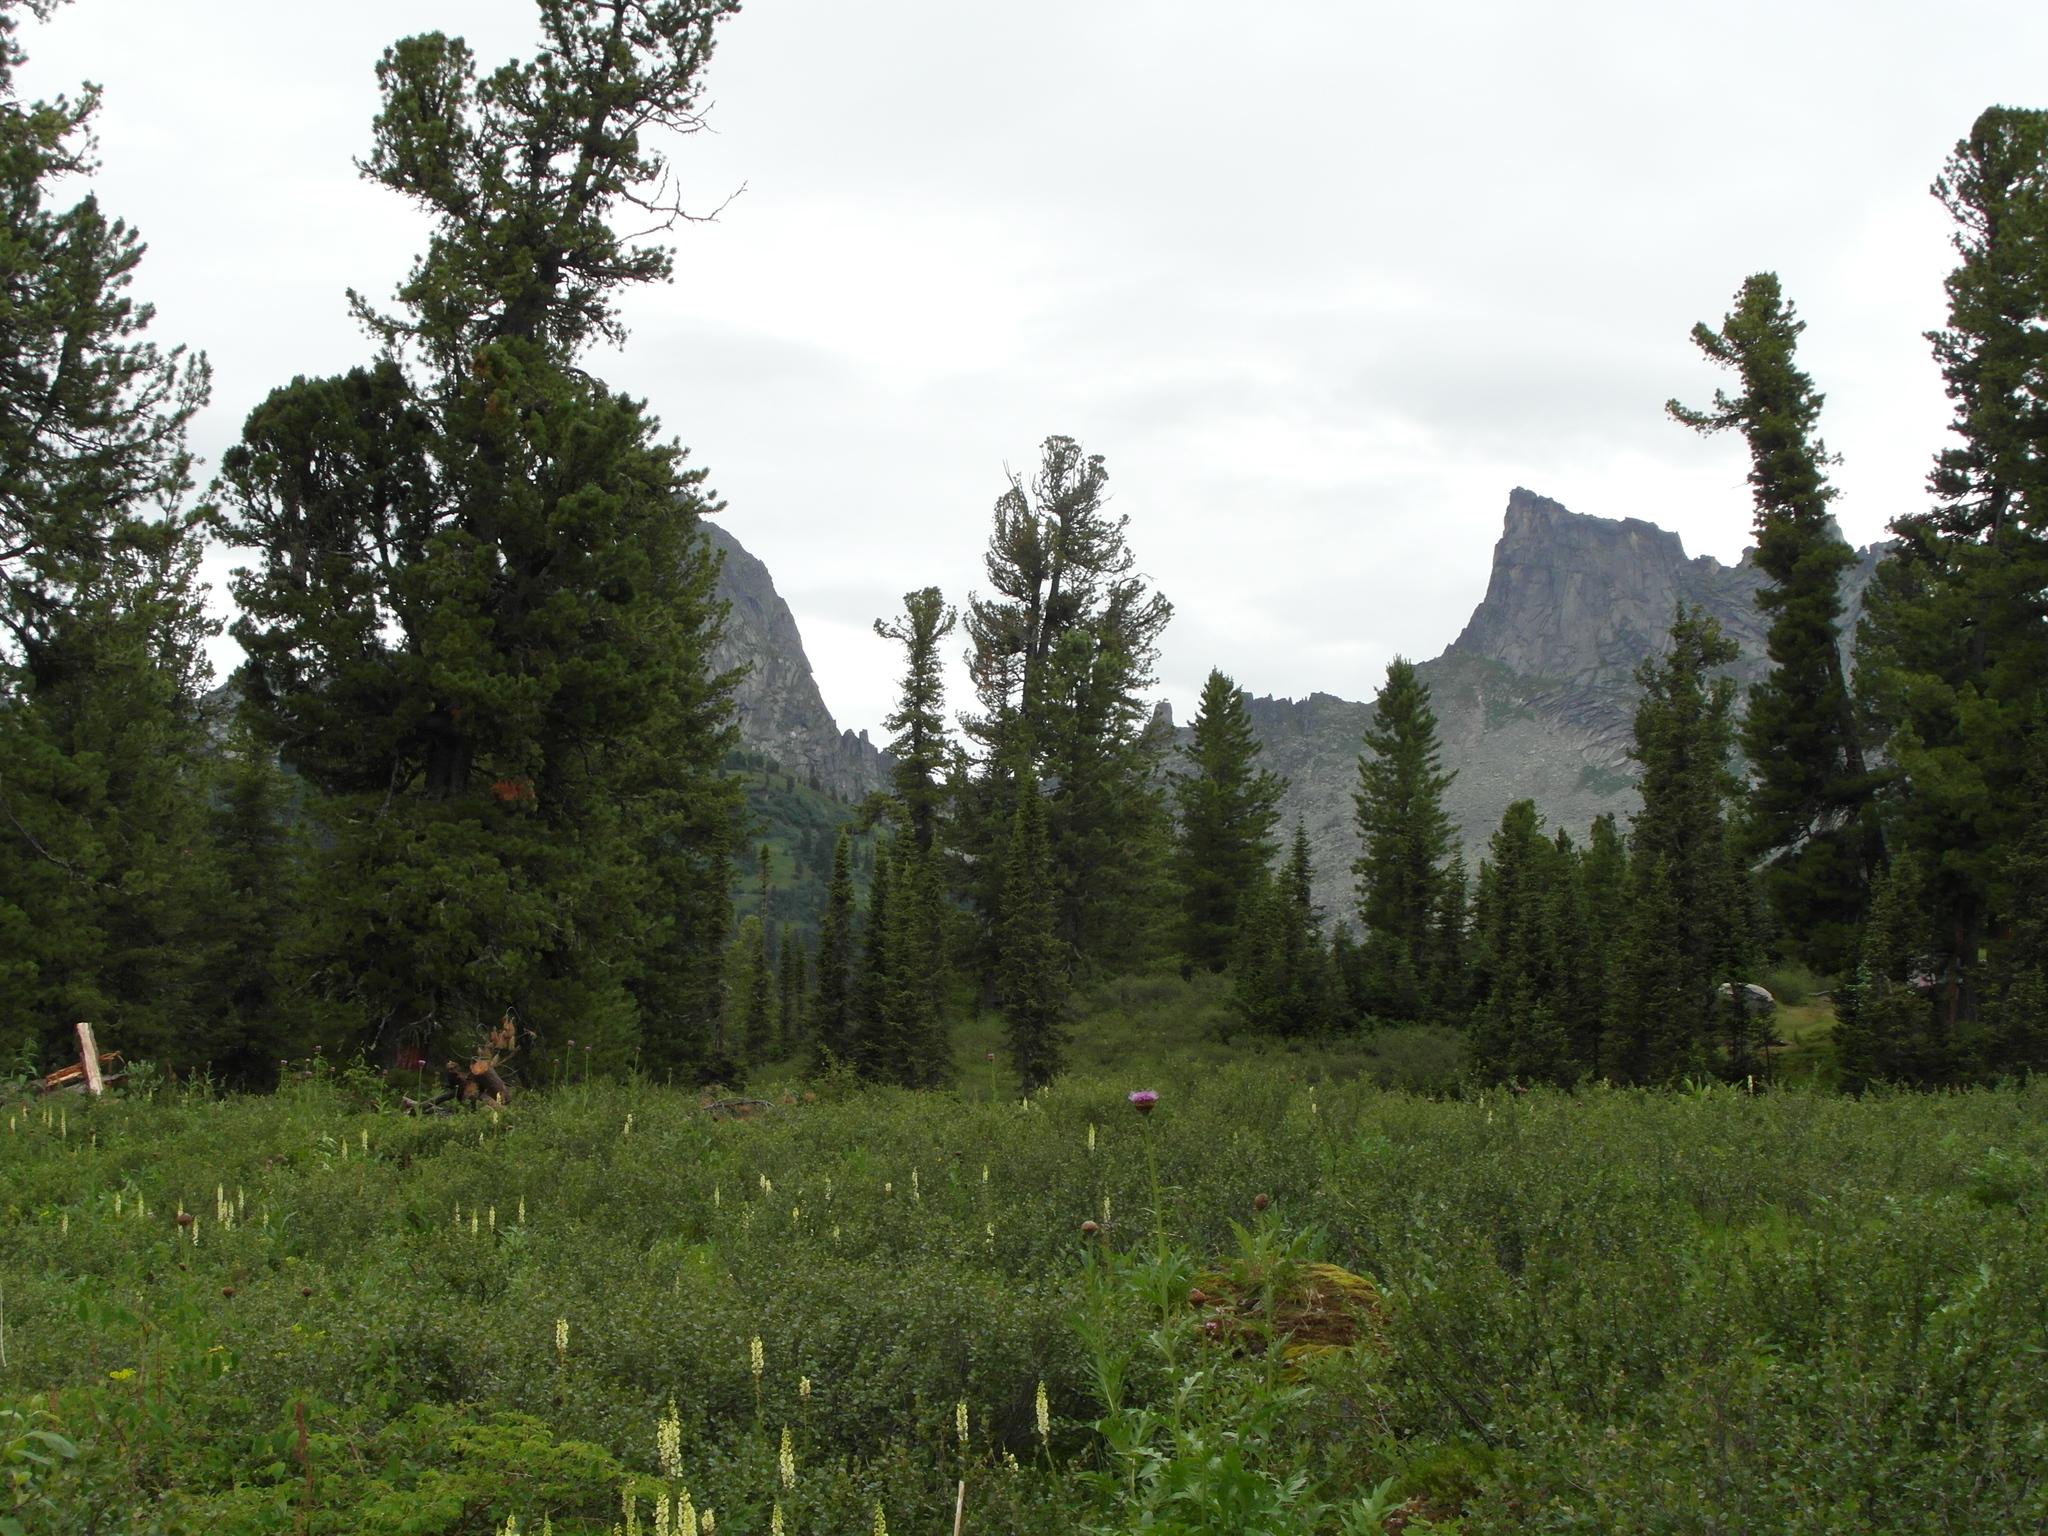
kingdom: Plantae
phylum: Tracheophyta
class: Pinopsida
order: Pinales
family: Pinaceae
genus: Abies
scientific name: Abies sibirica
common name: Siberian fir
